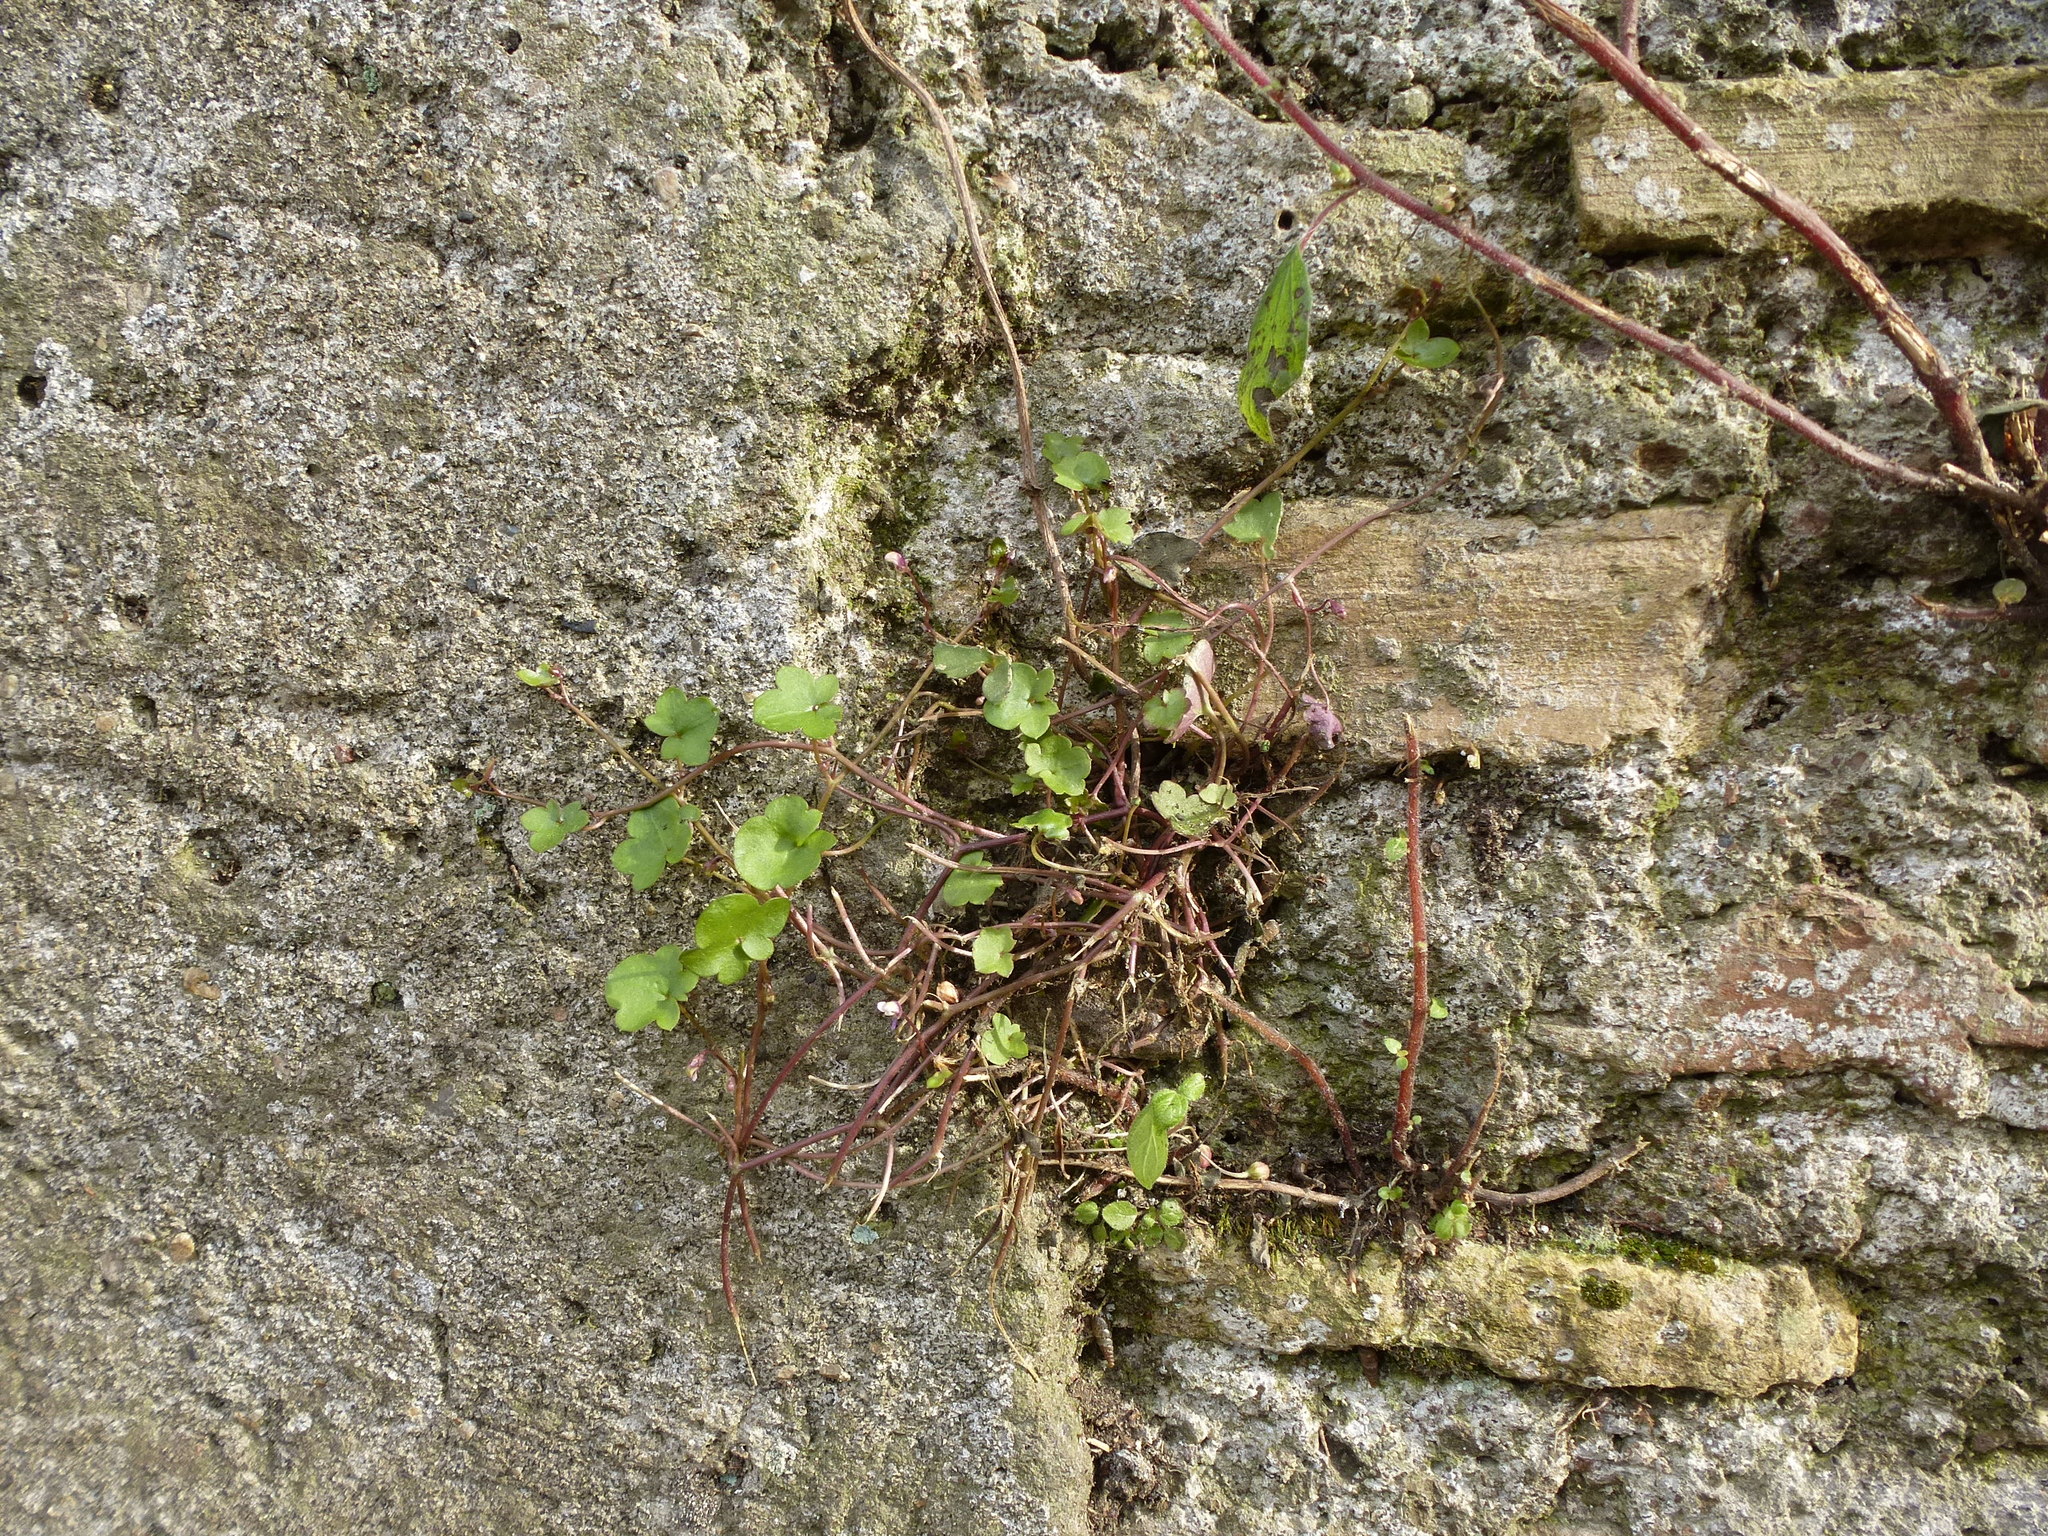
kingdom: Plantae
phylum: Tracheophyta
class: Magnoliopsida
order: Lamiales
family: Plantaginaceae
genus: Cymbalaria
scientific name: Cymbalaria muralis
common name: Ivy-leaved toadflax
